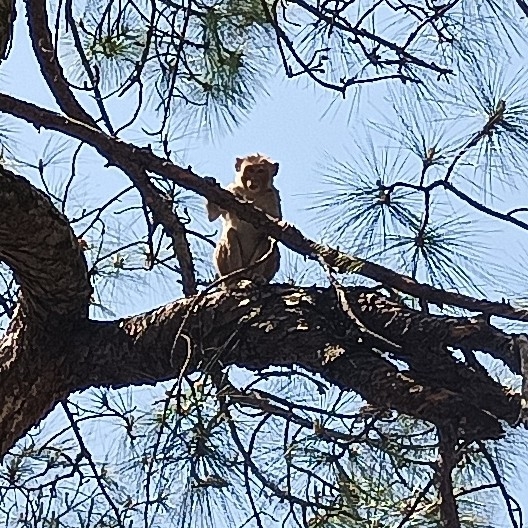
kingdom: Animalia
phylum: Chordata
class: Mammalia
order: Primates
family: Cercopithecidae
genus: Macaca
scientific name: Macaca mulatta
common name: Rhesus monkey
